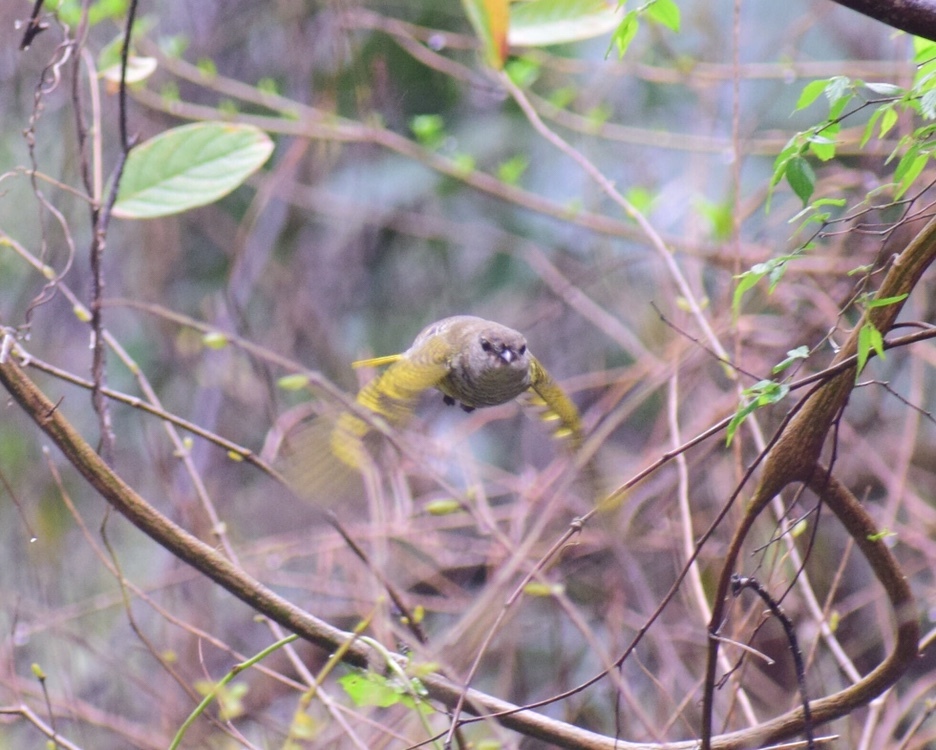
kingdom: Animalia
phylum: Chordata
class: Aves
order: Passeriformes
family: Campephagidae
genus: Campephaga
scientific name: Campephaga flava
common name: Black cuckooshrike
